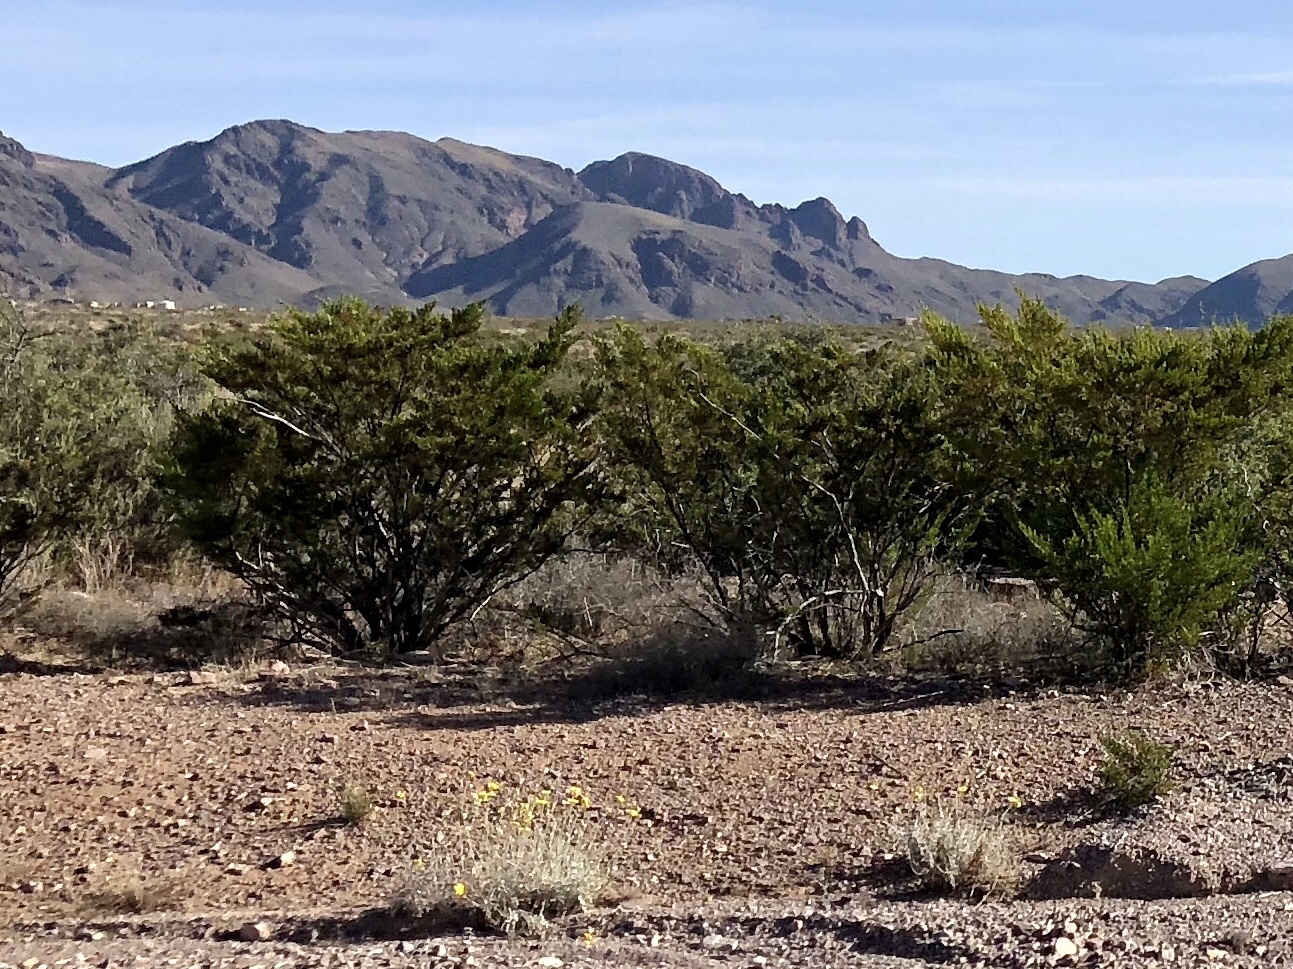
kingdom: Plantae
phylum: Tracheophyta
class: Magnoliopsida
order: Zygophyllales
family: Zygophyllaceae
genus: Larrea
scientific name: Larrea tridentata
